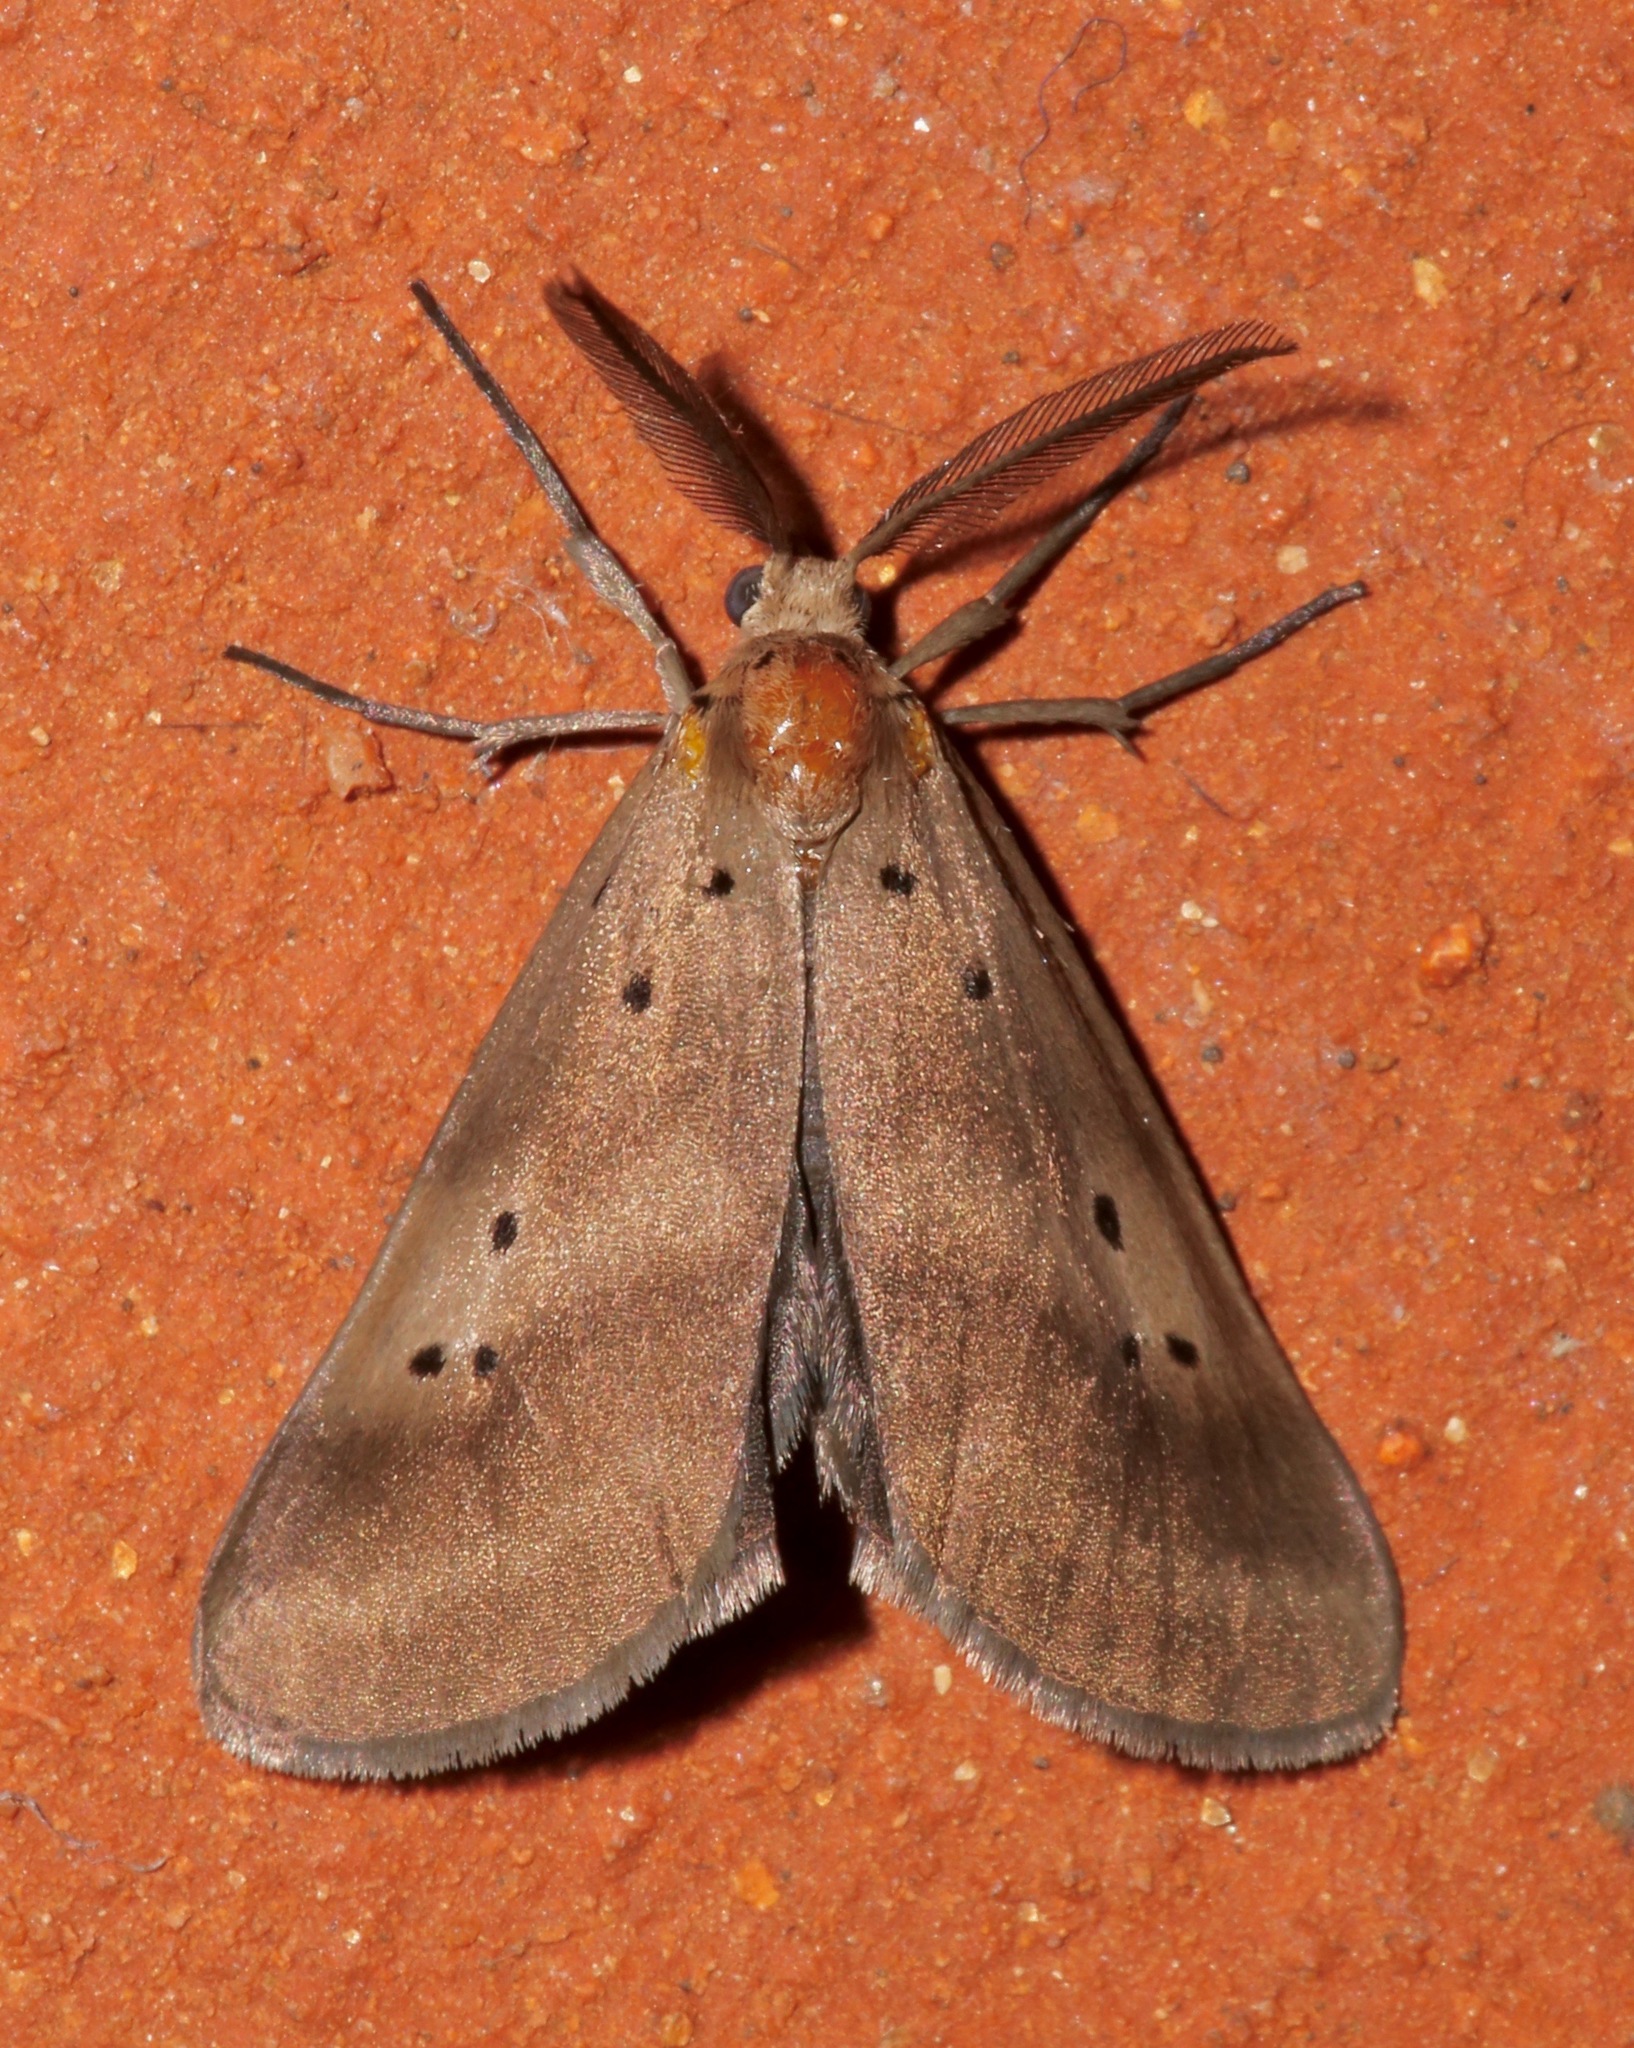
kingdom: Animalia
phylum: Arthropoda
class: Insecta
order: Lepidoptera
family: Doidae
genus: Doa
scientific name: Doa dora
